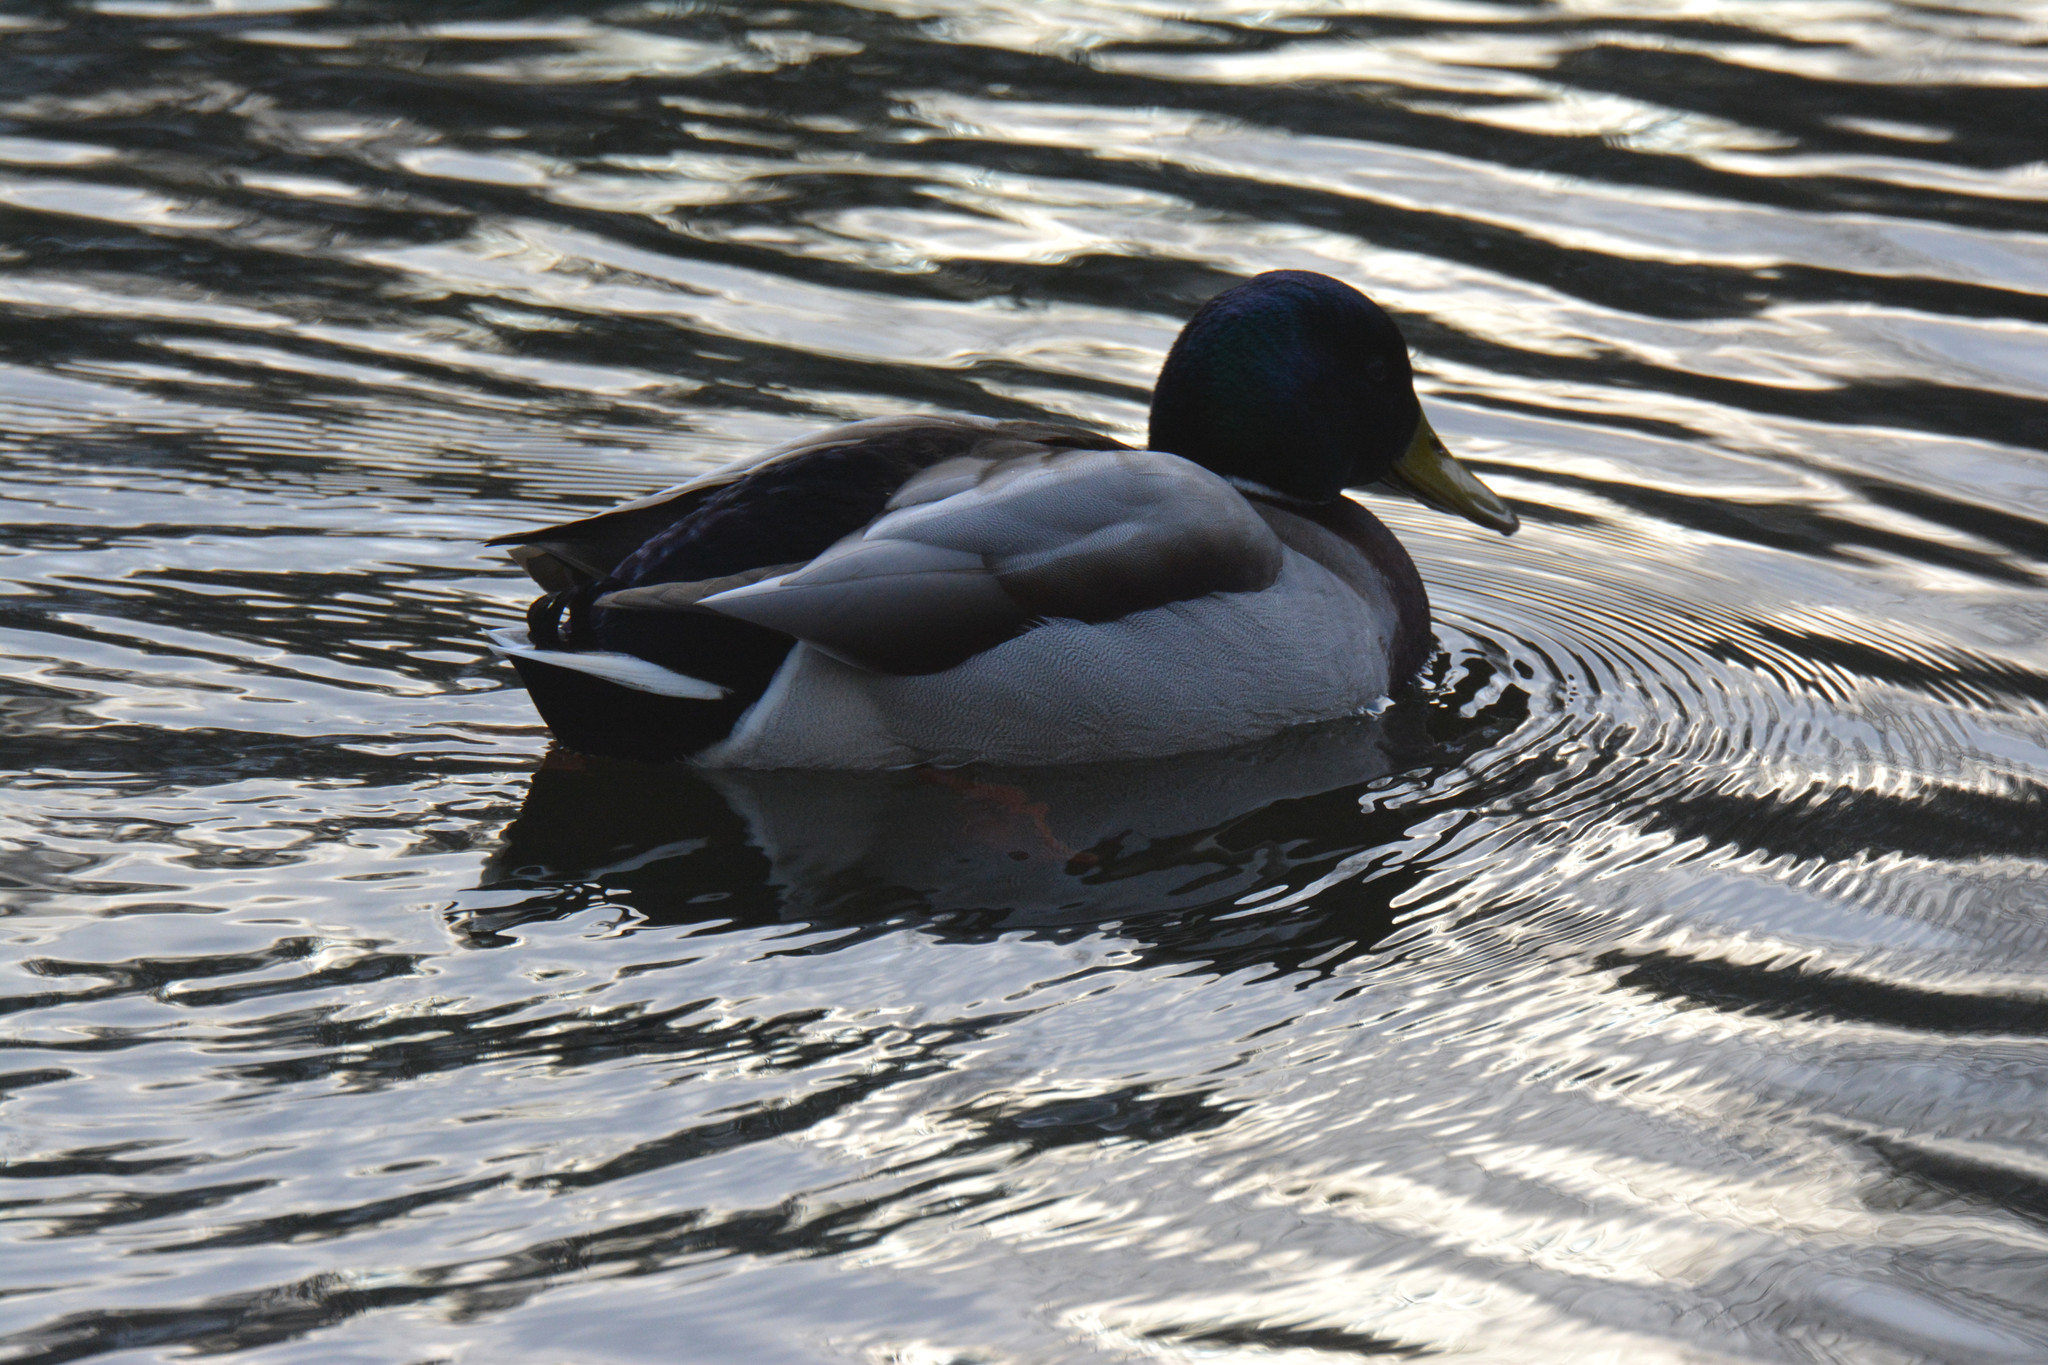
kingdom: Animalia
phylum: Chordata
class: Aves
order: Anseriformes
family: Anatidae
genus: Anas
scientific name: Anas platyrhynchos
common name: Mallard
